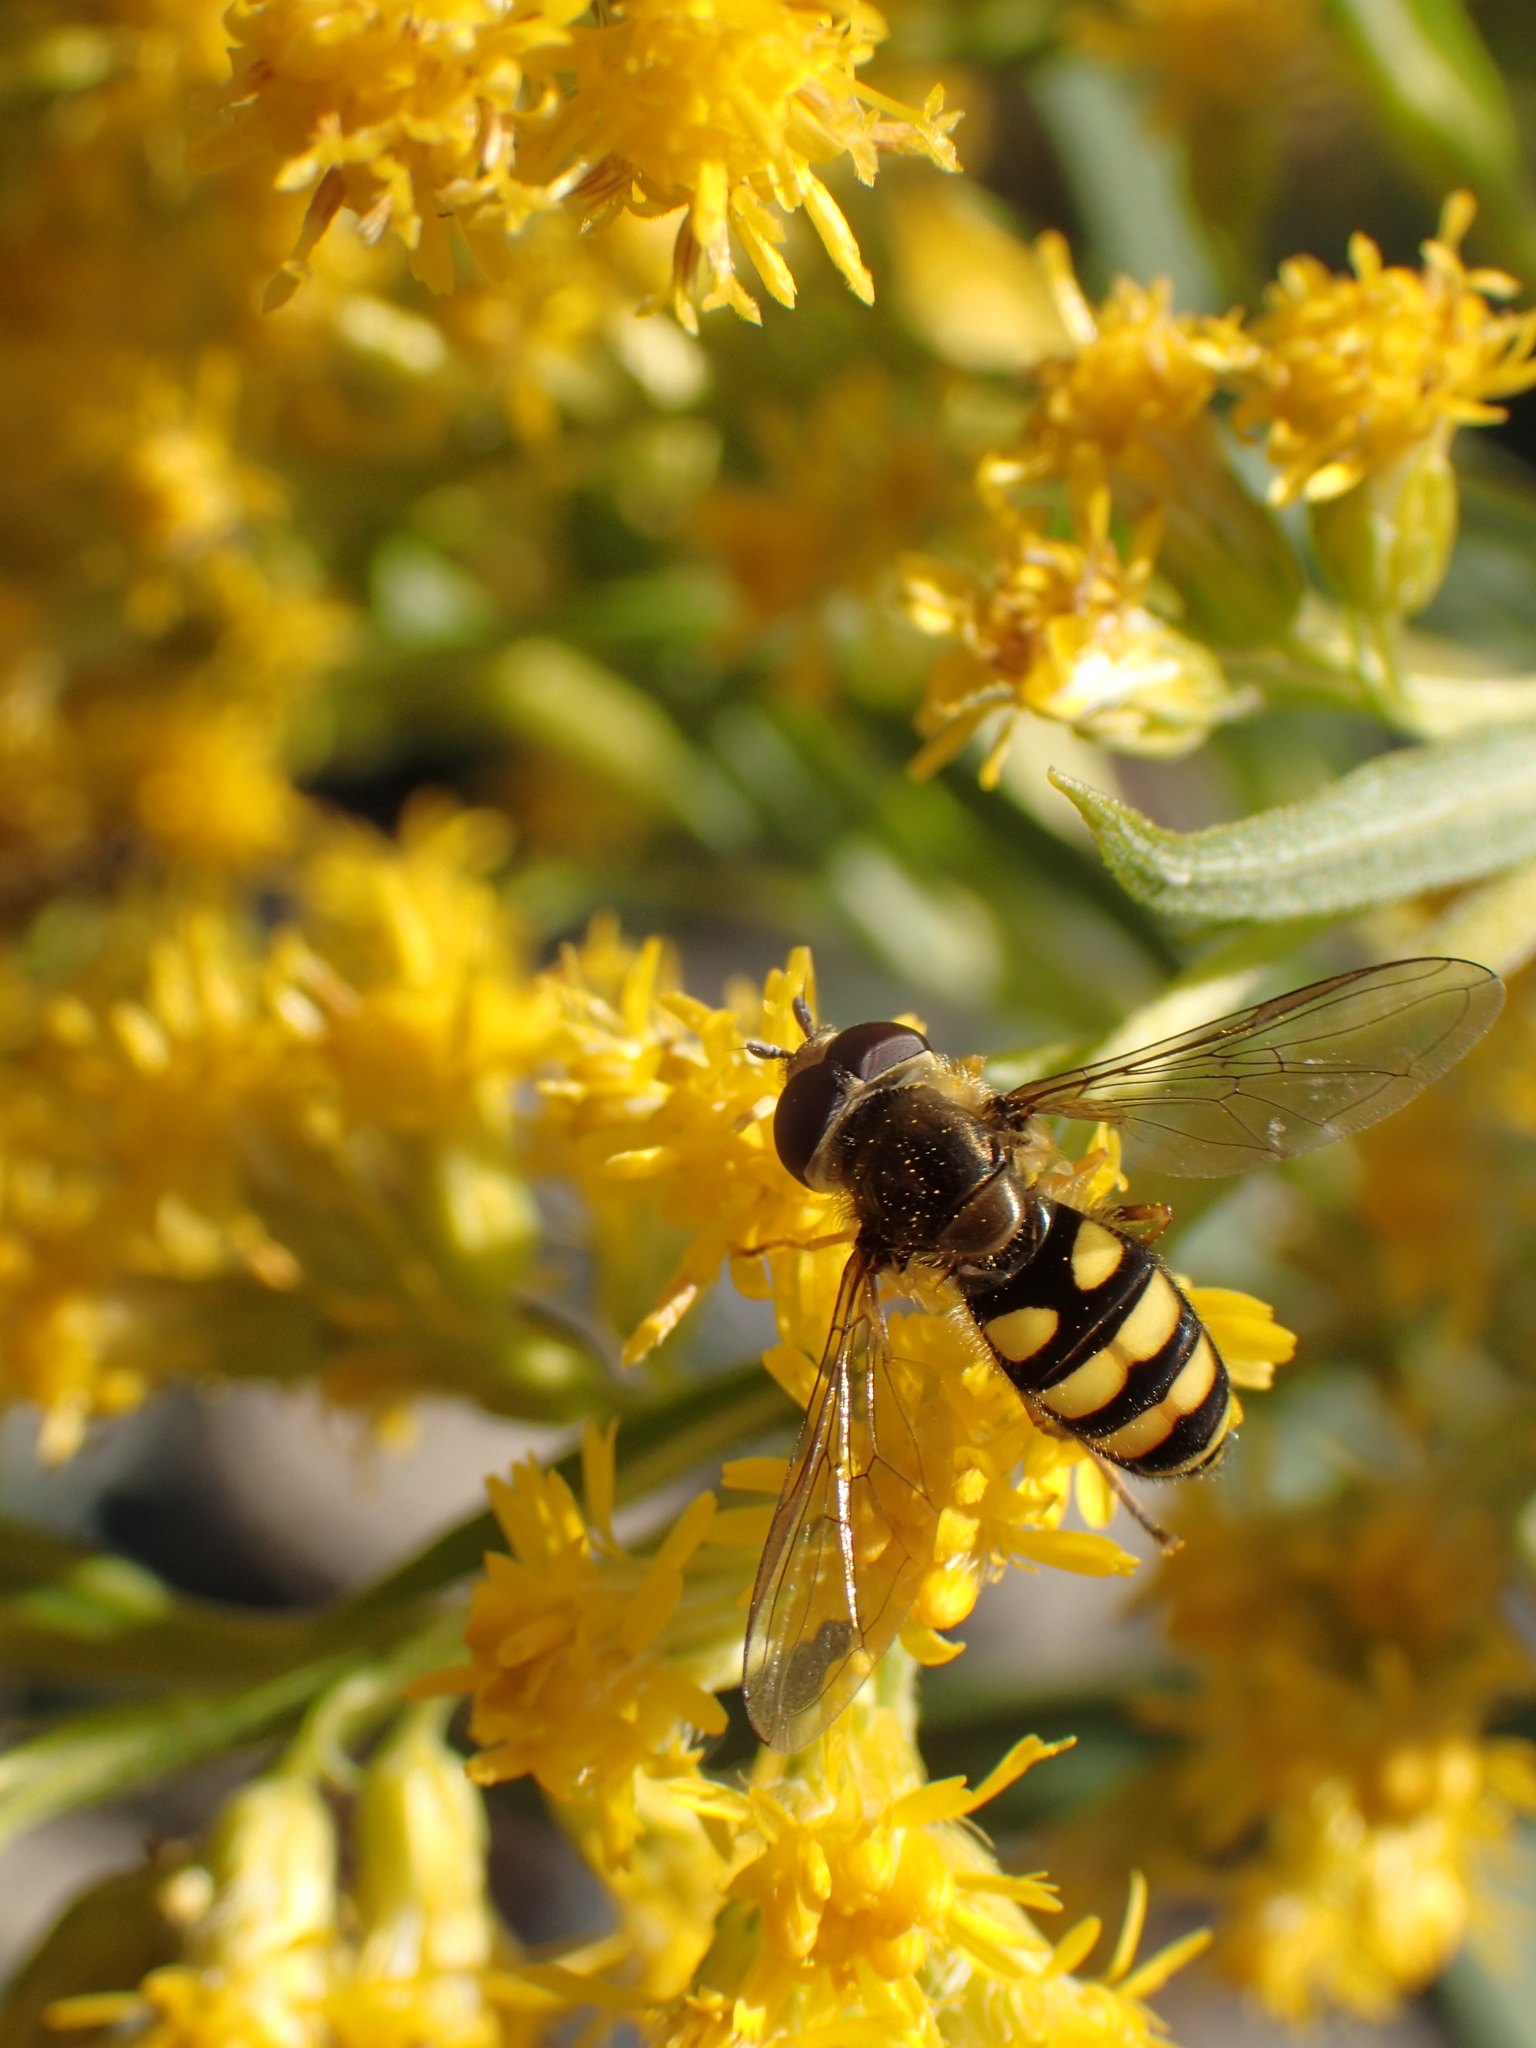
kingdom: Animalia
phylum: Arthropoda
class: Insecta
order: Diptera
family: Syrphidae
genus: Eupeodes
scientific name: Eupeodes
